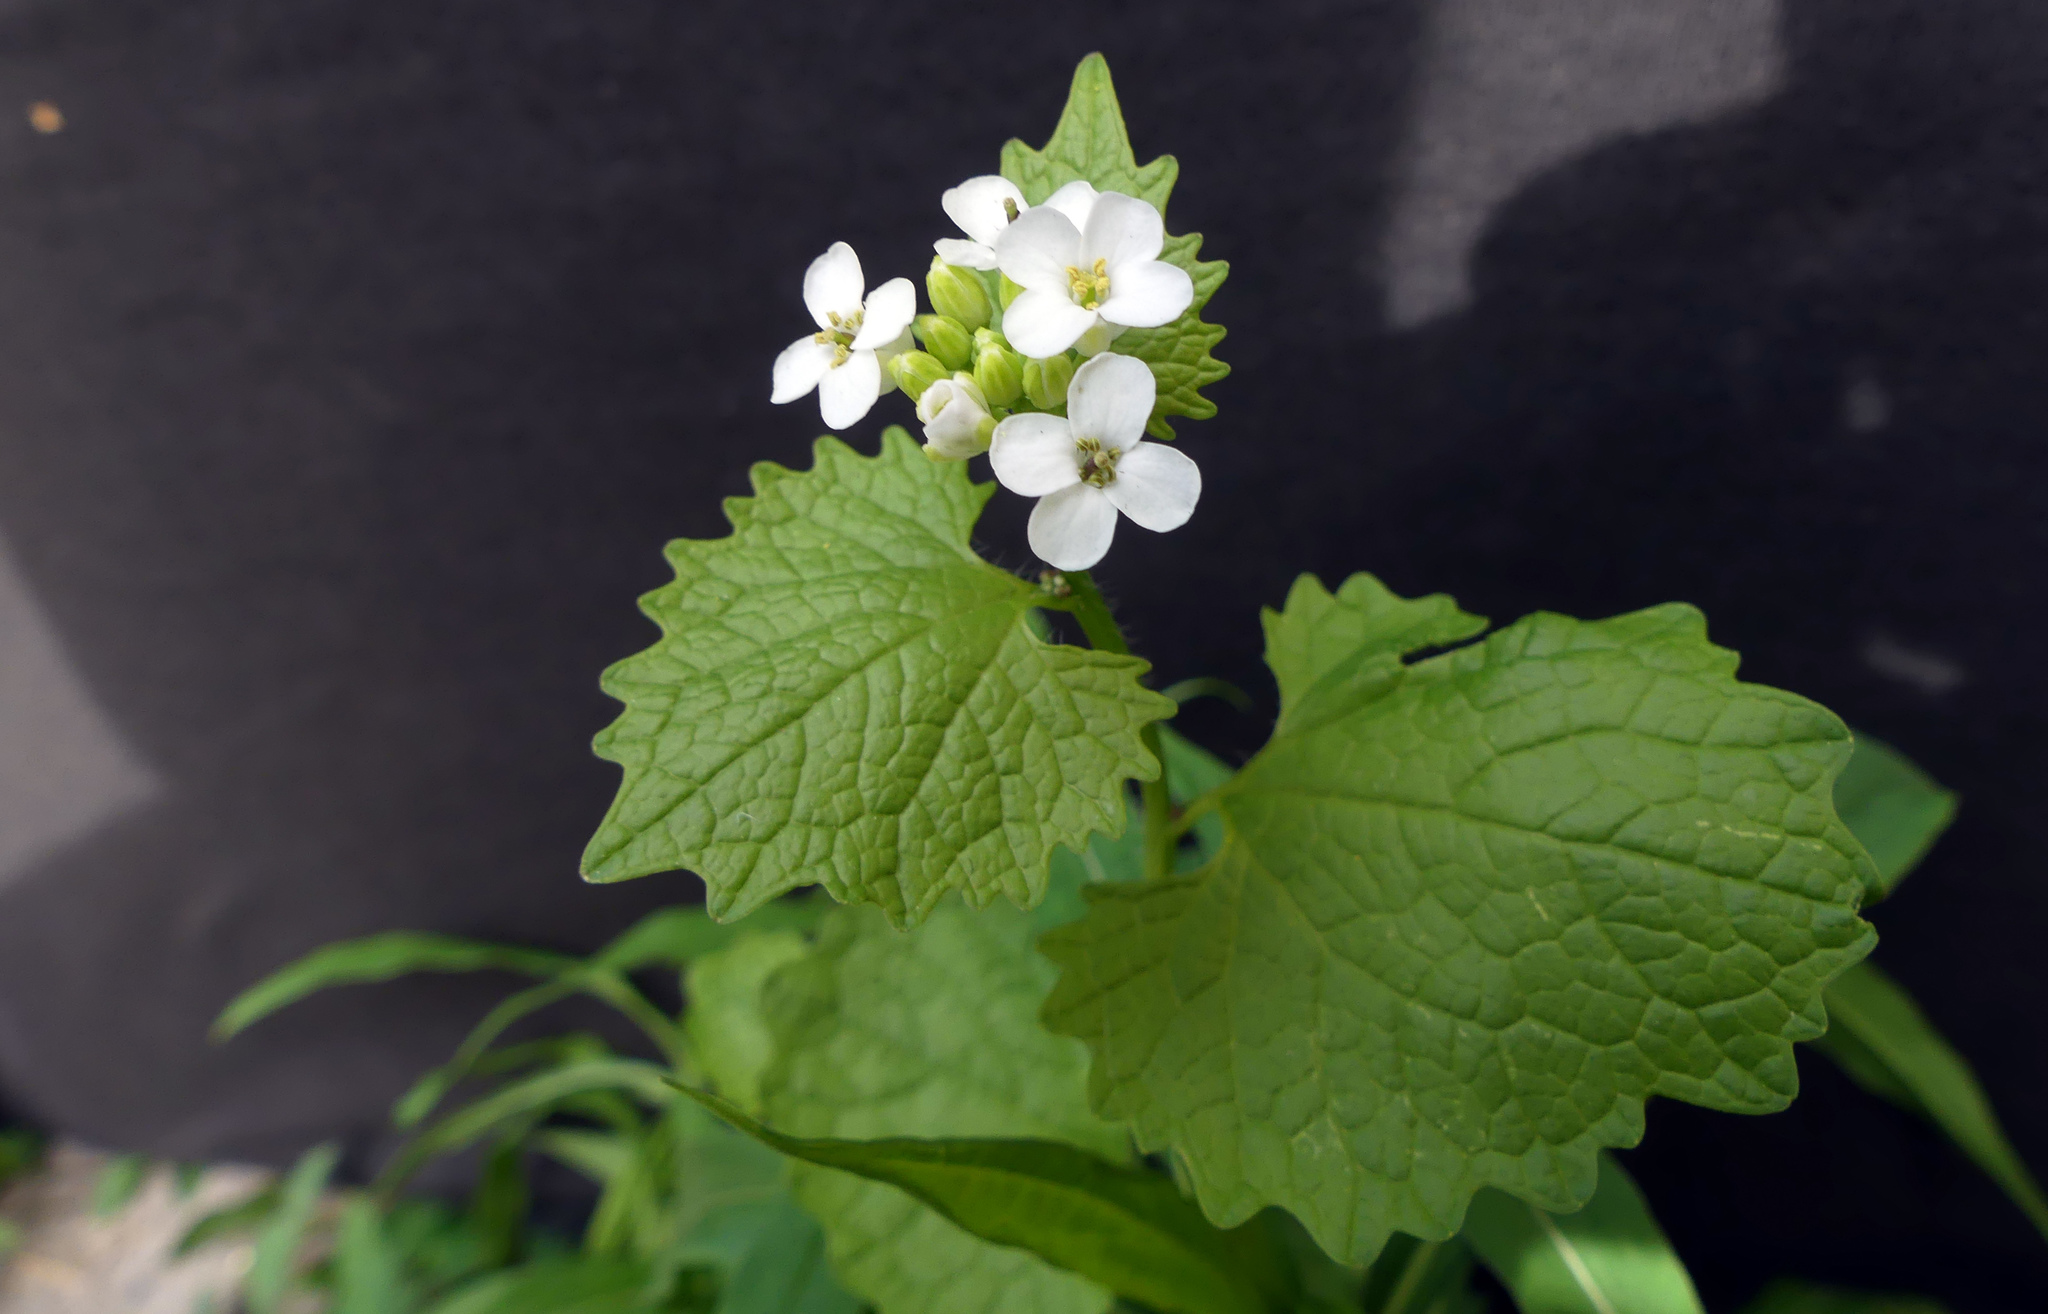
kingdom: Plantae
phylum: Tracheophyta
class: Magnoliopsida
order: Brassicales
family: Brassicaceae
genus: Alliaria
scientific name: Alliaria petiolata
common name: Garlic mustard
